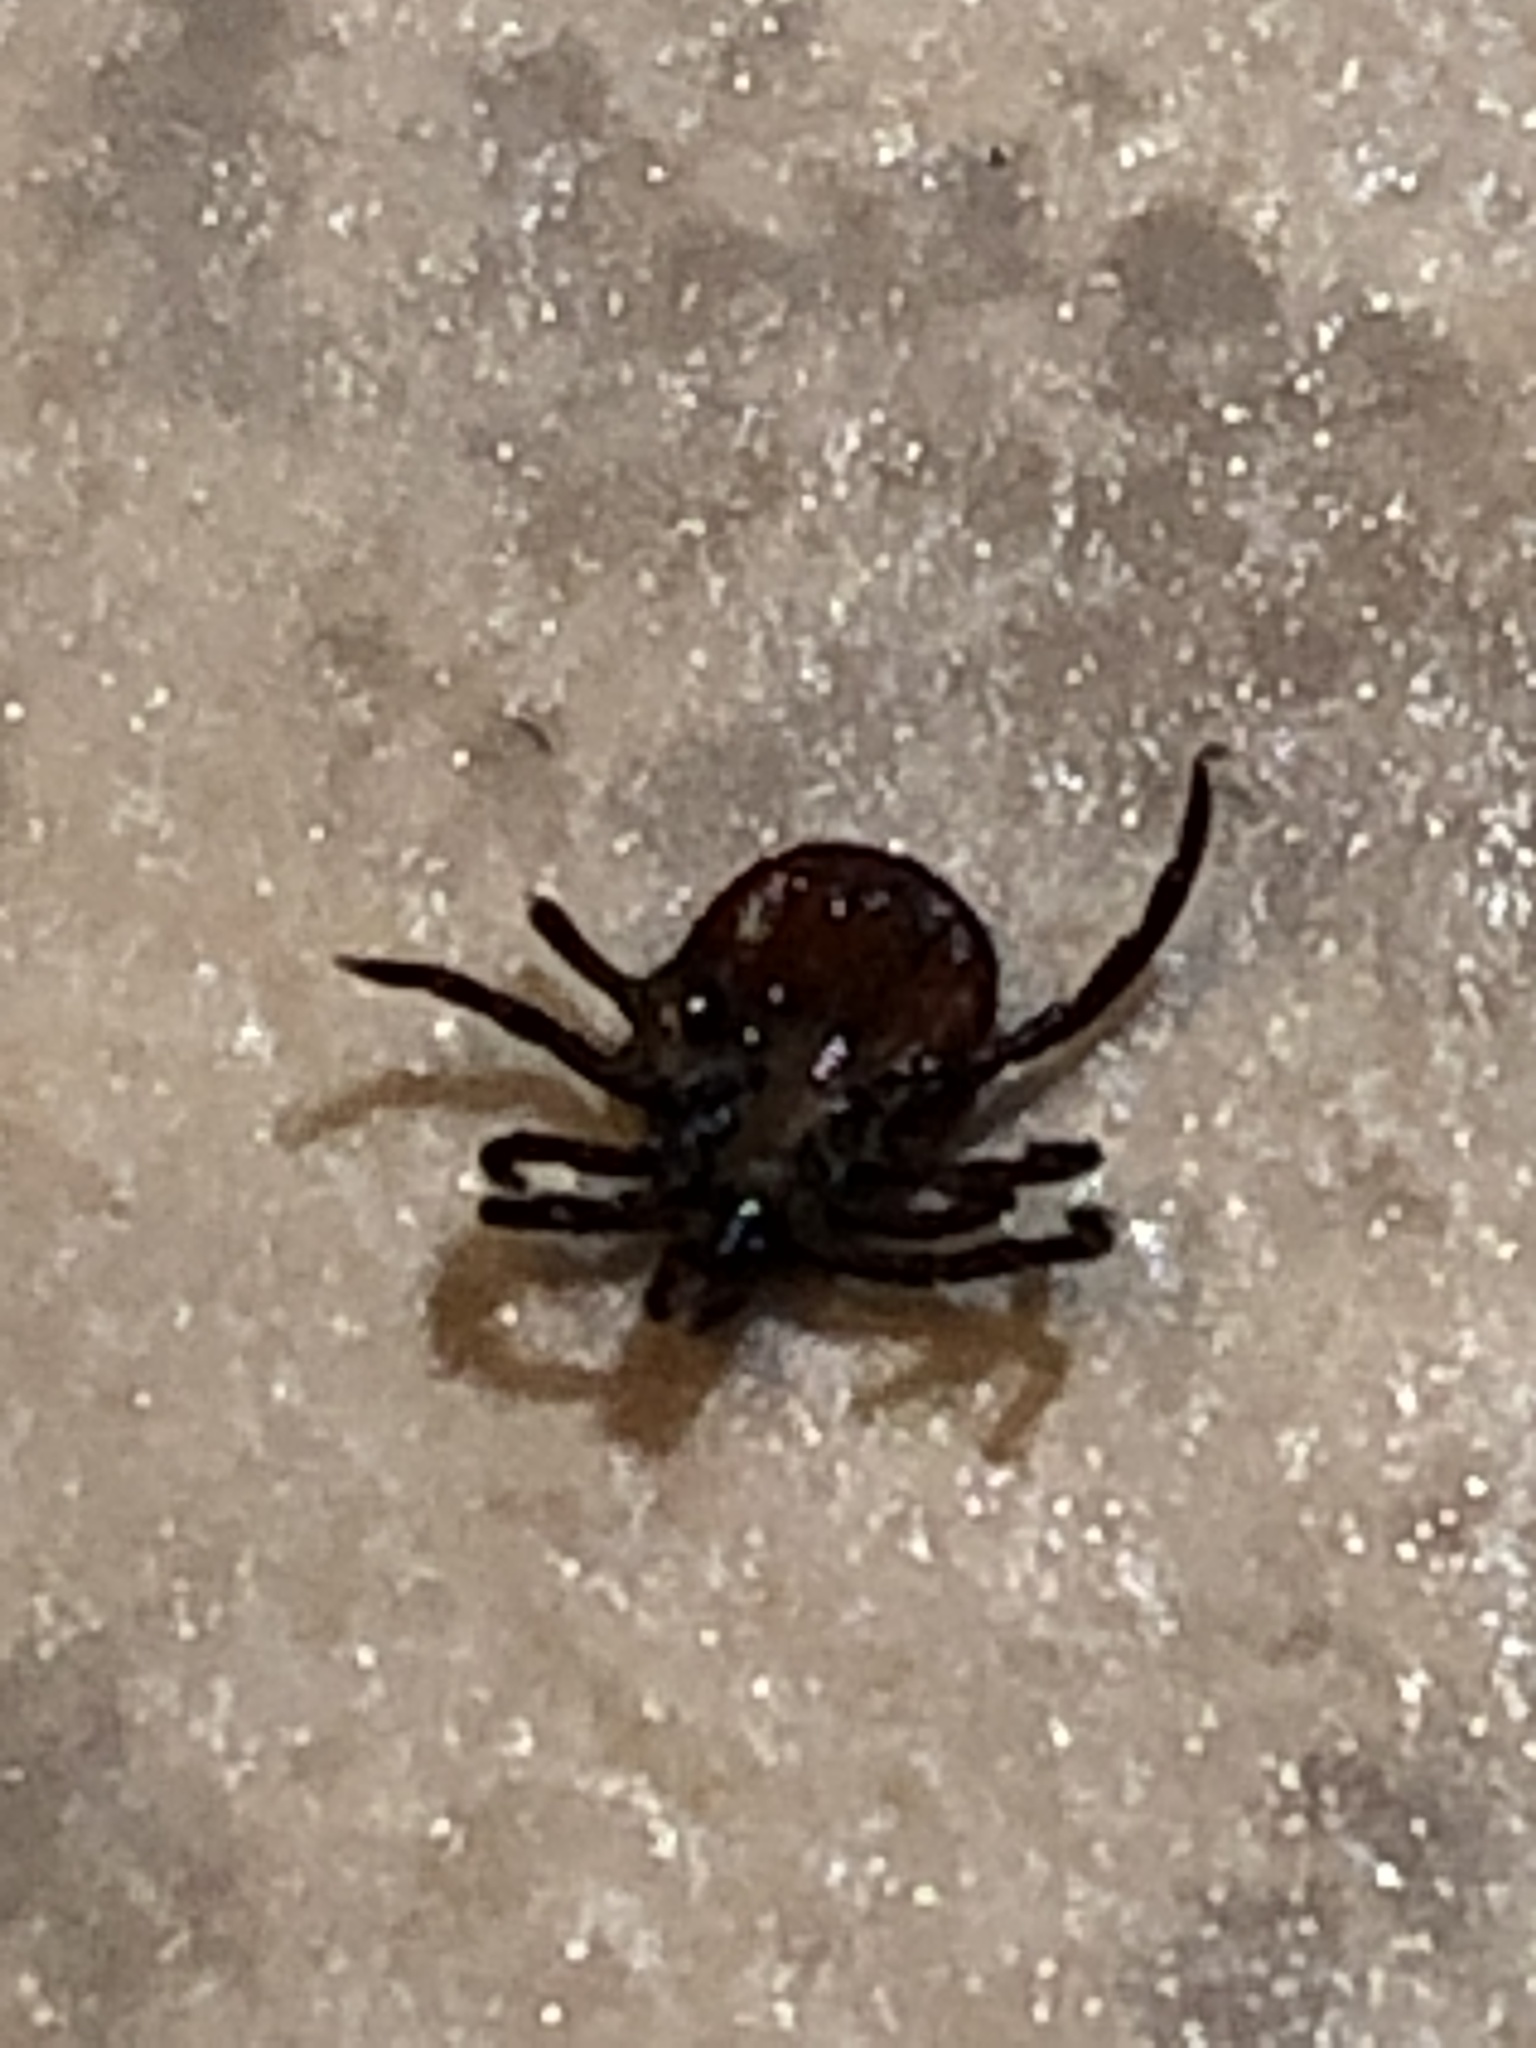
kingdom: Animalia
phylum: Arthropoda
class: Arachnida
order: Ixodida
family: Ixodidae
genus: Ixodes
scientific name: Ixodes scapularis
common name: Black legged tick
